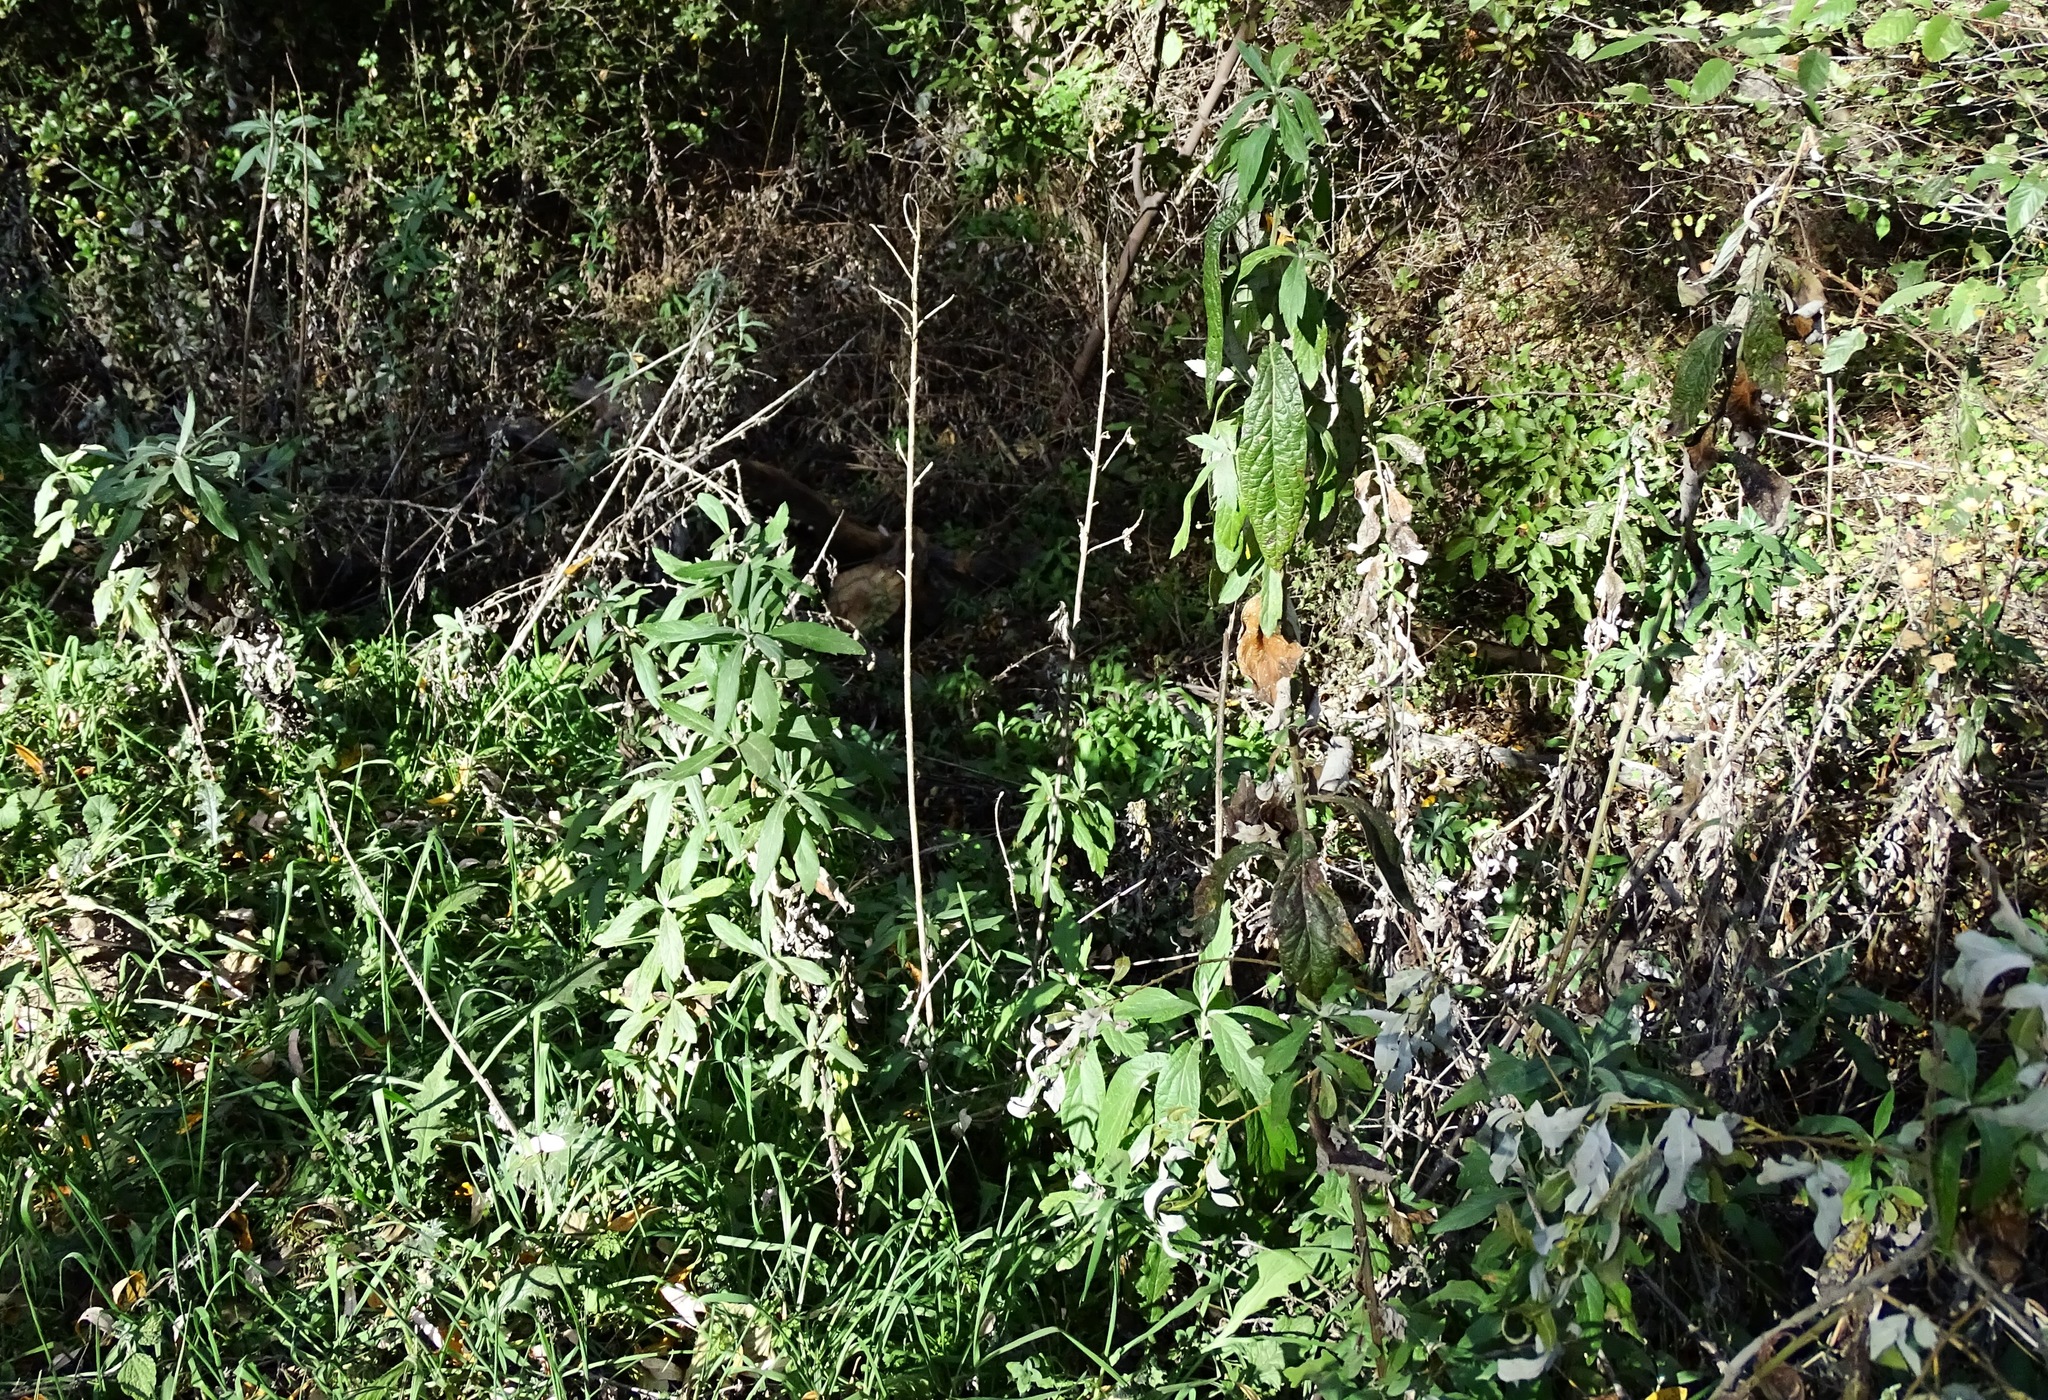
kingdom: Plantae
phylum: Tracheophyta
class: Magnoliopsida
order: Asterales
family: Asteraceae
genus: Artemisia
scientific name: Artemisia douglasiana
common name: Northwest mugwort
